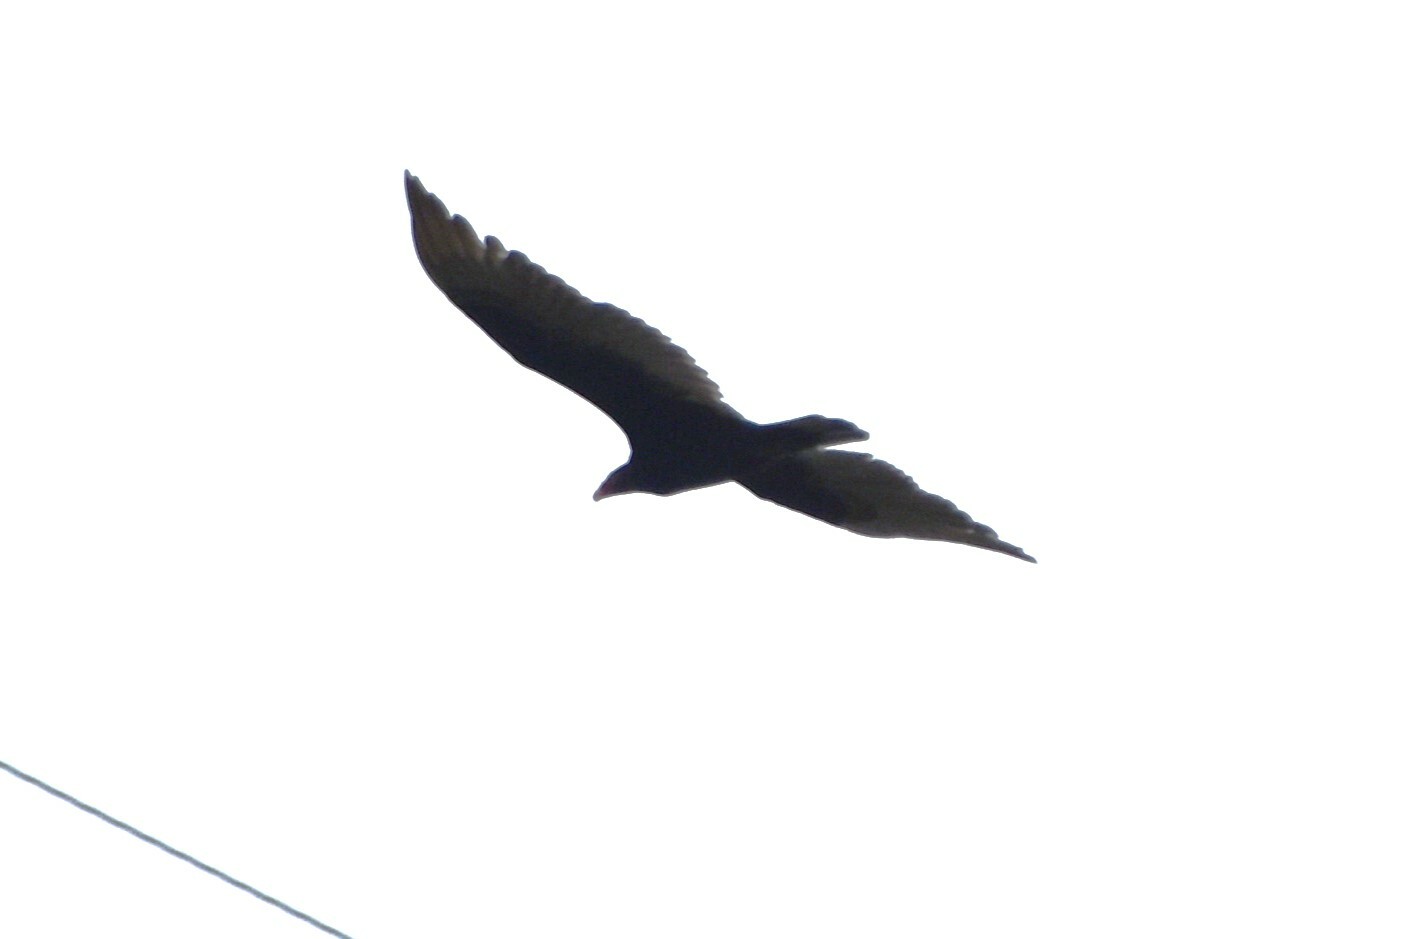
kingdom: Animalia
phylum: Chordata
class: Aves
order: Accipitriformes
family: Cathartidae
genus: Cathartes
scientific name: Cathartes aura
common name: Turkey vulture
